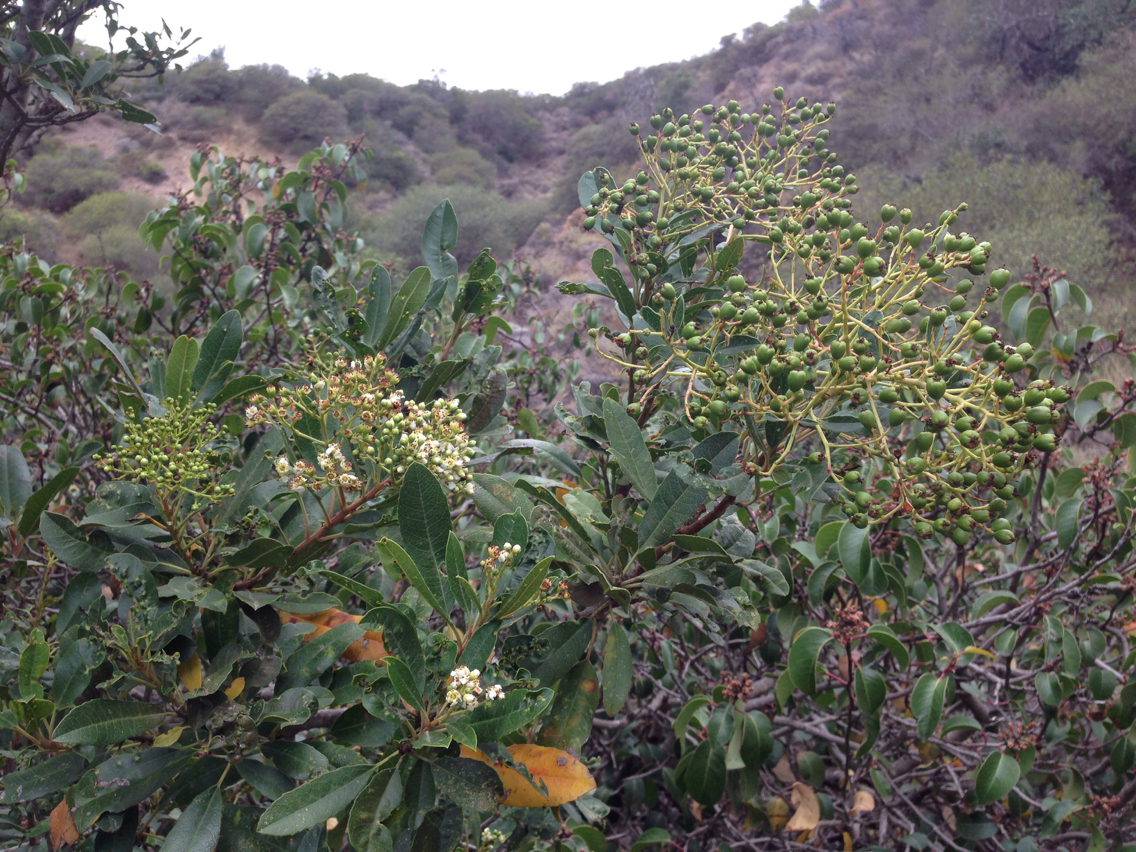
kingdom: Plantae
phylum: Tracheophyta
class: Magnoliopsida
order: Rosales
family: Rosaceae
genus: Heteromeles
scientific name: Heteromeles arbutifolia
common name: California-holly
